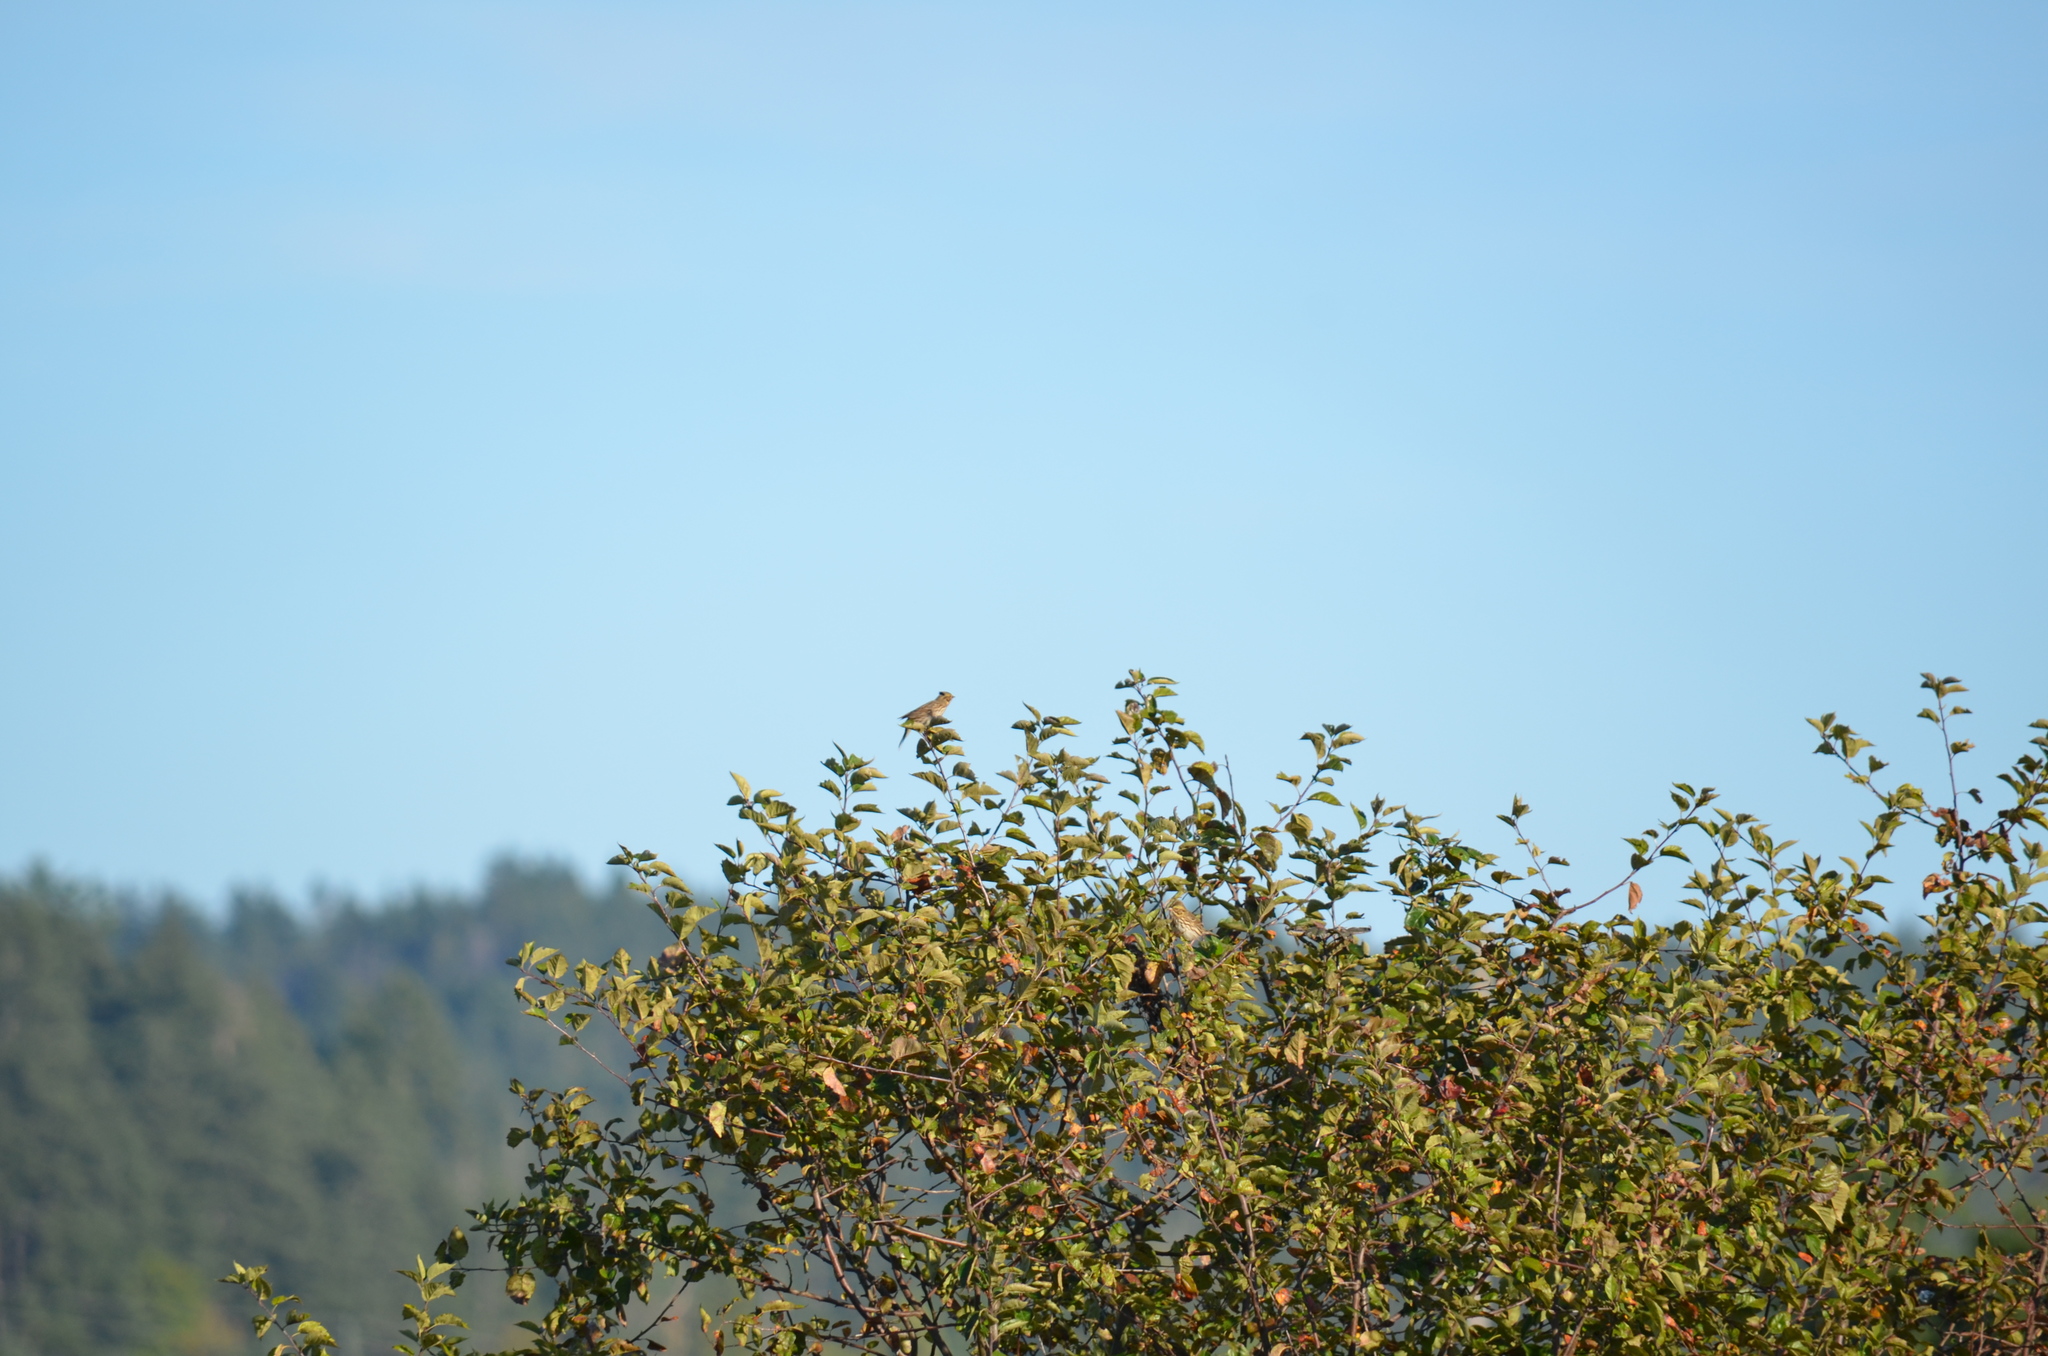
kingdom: Animalia
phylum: Chordata
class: Aves
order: Passeriformes
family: Passerellidae
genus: Passerculus
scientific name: Passerculus sandwichensis
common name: Savannah sparrow
